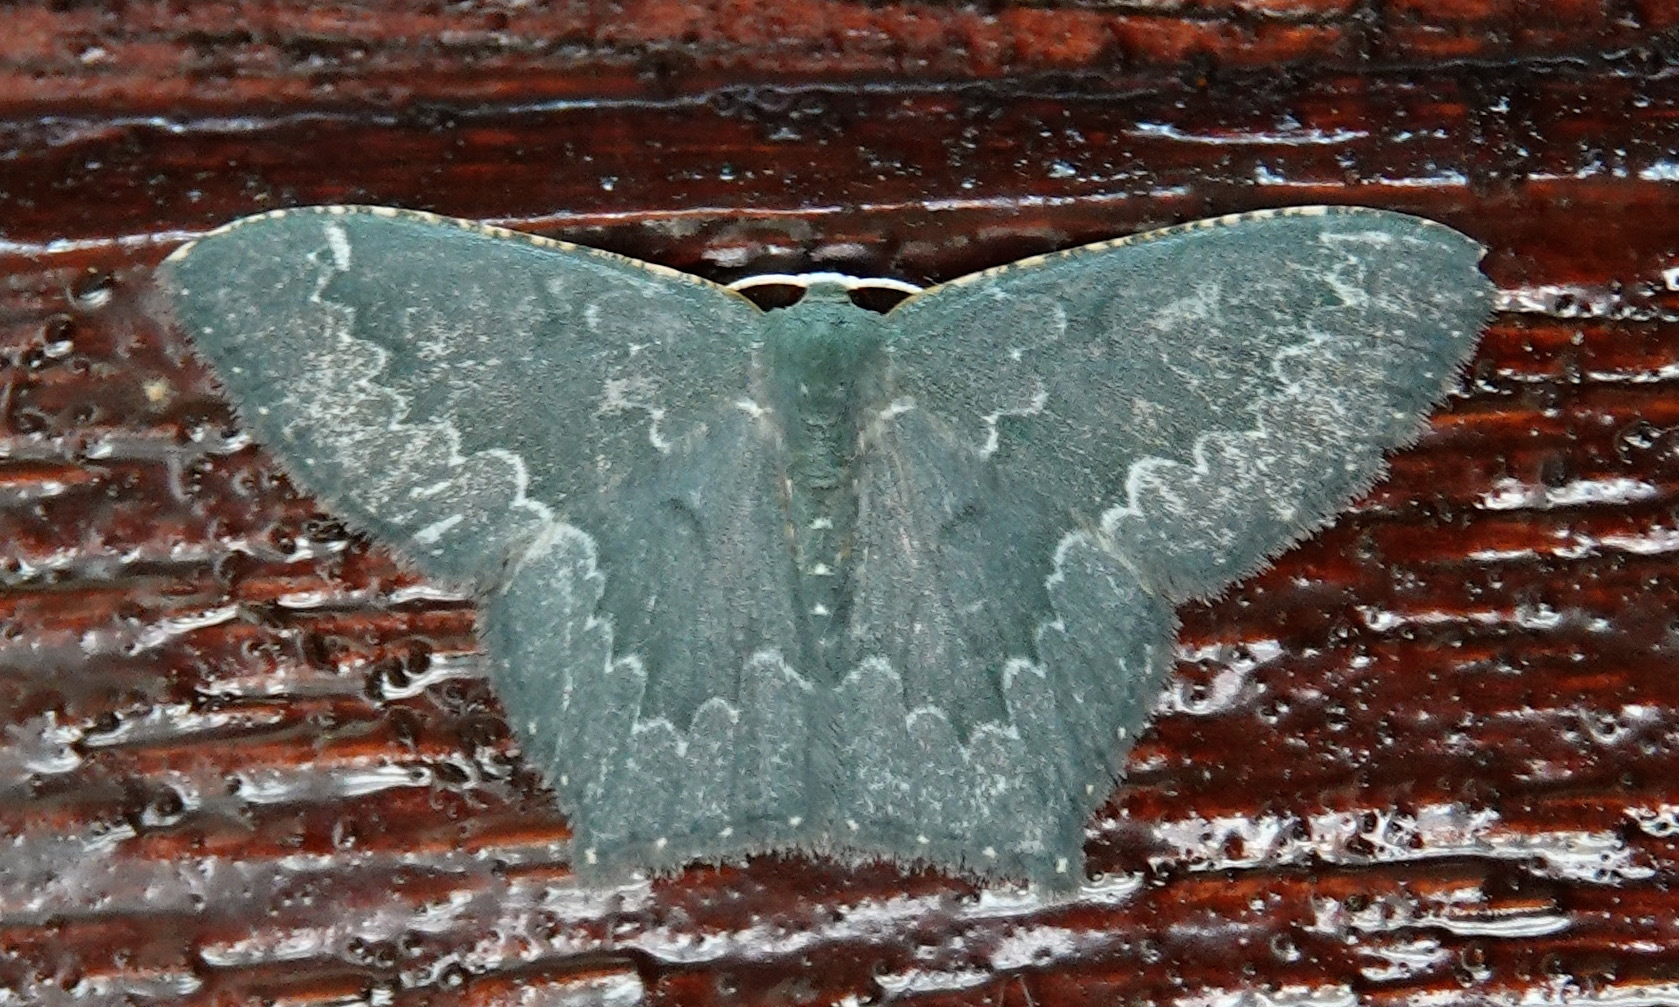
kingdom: Animalia
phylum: Arthropoda
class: Insecta
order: Lepidoptera
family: Geometridae
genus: Berta
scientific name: Berta annulifera
